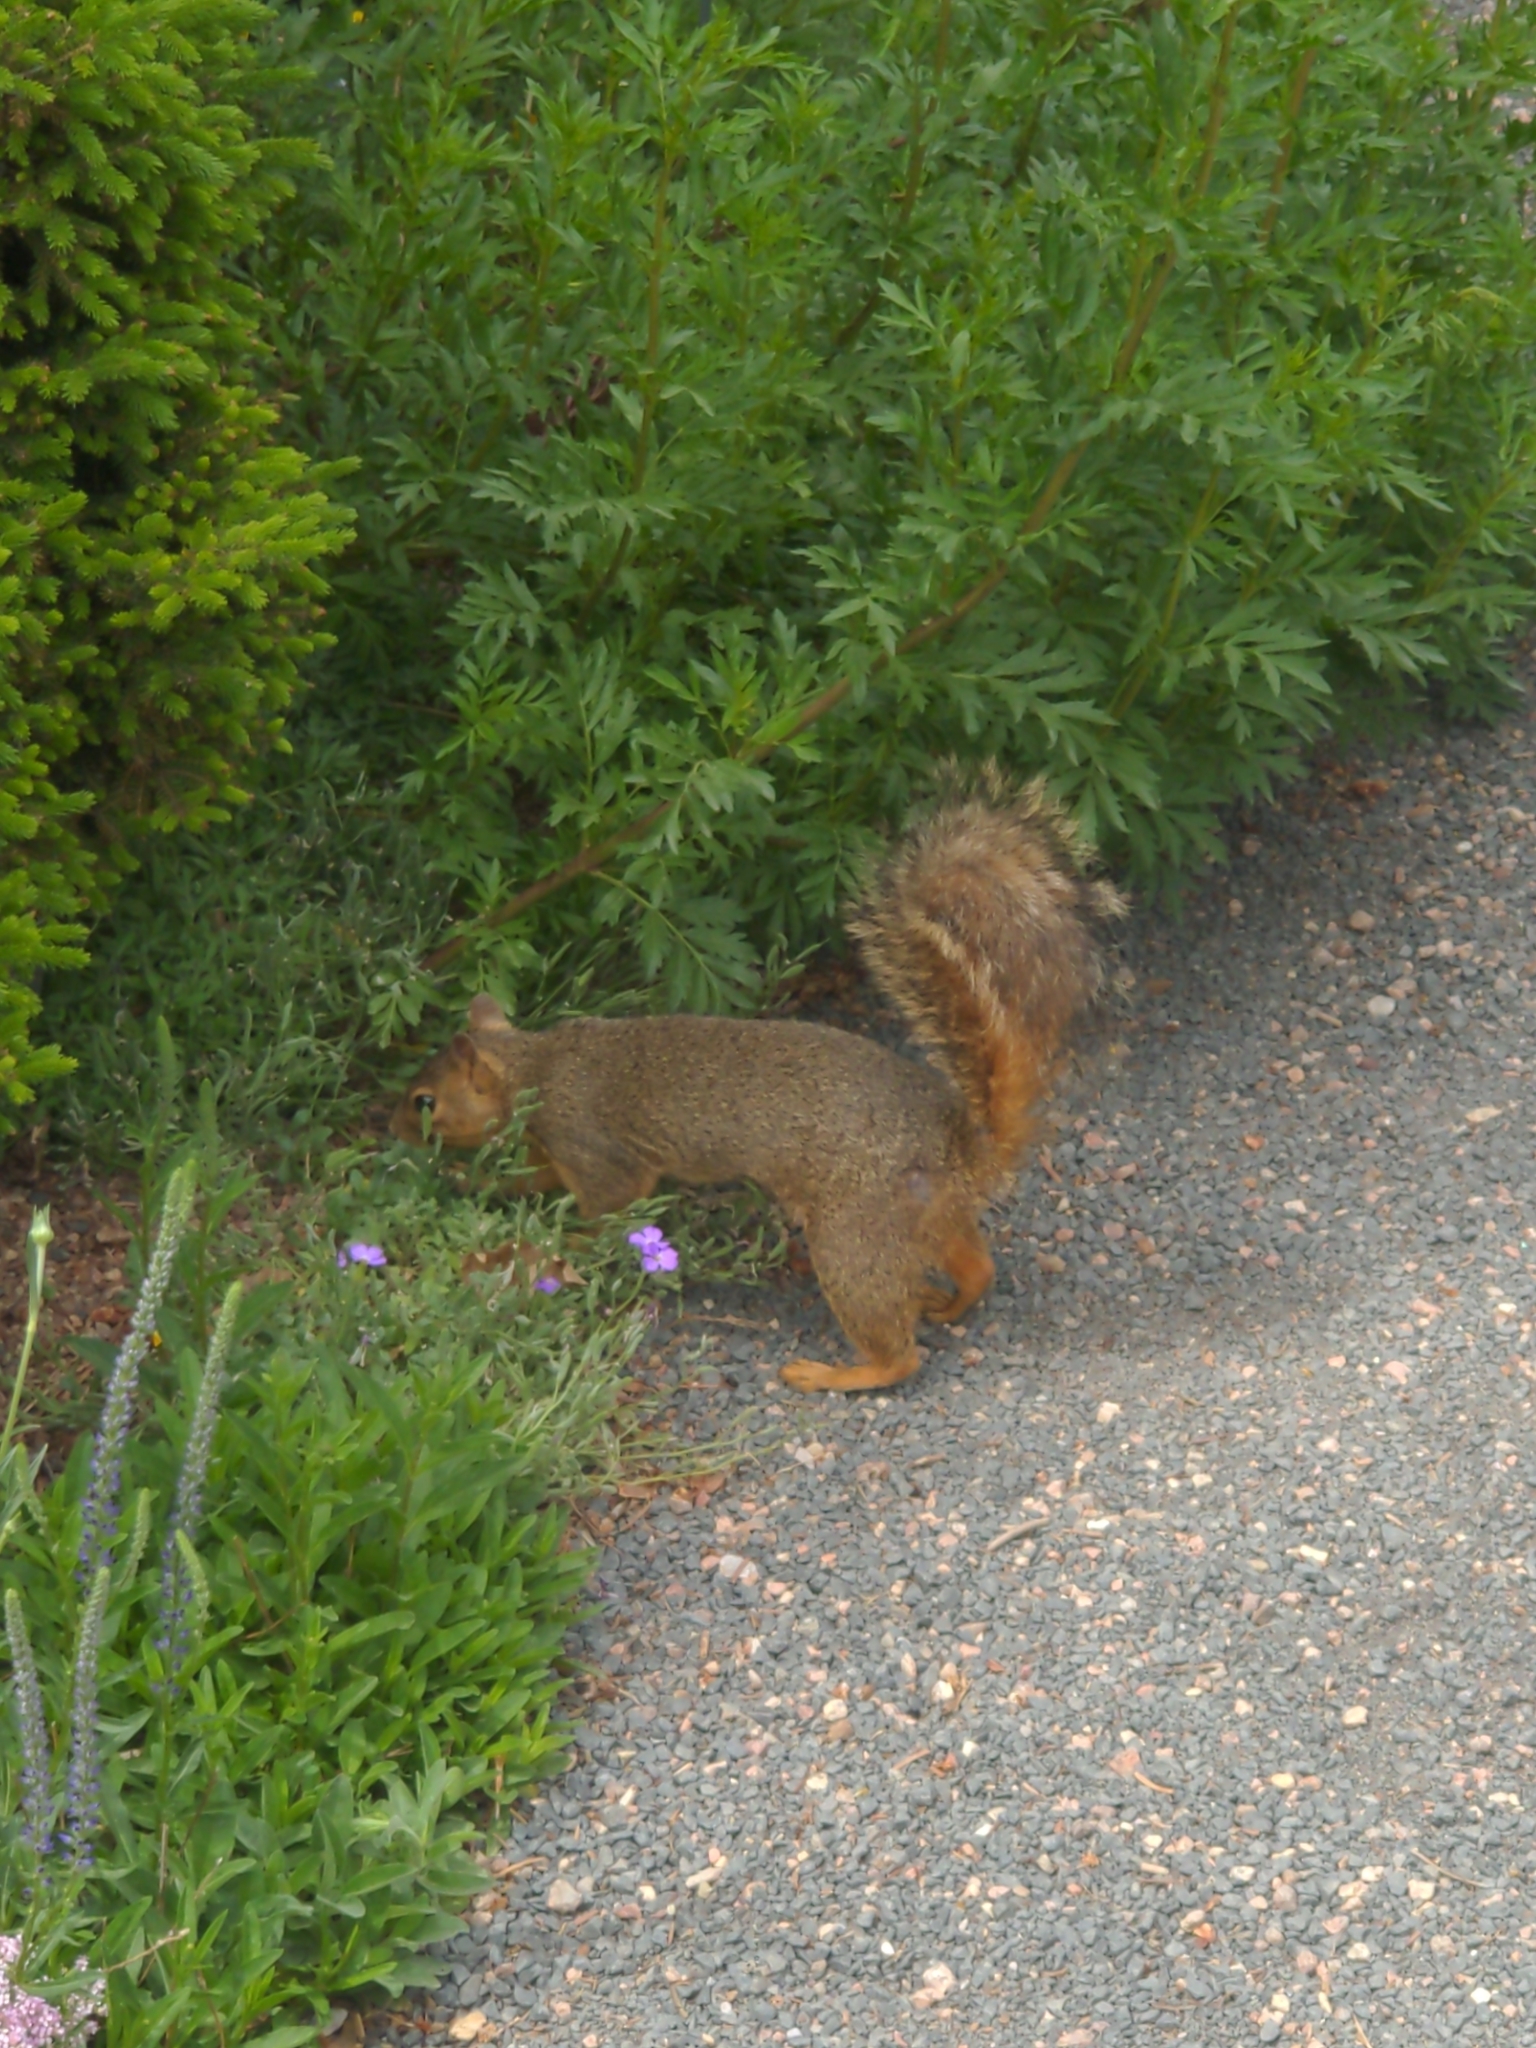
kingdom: Animalia
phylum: Chordata
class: Mammalia
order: Rodentia
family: Sciuridae
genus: Sciurus
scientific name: Sciurus niger
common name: Fox squirrel
